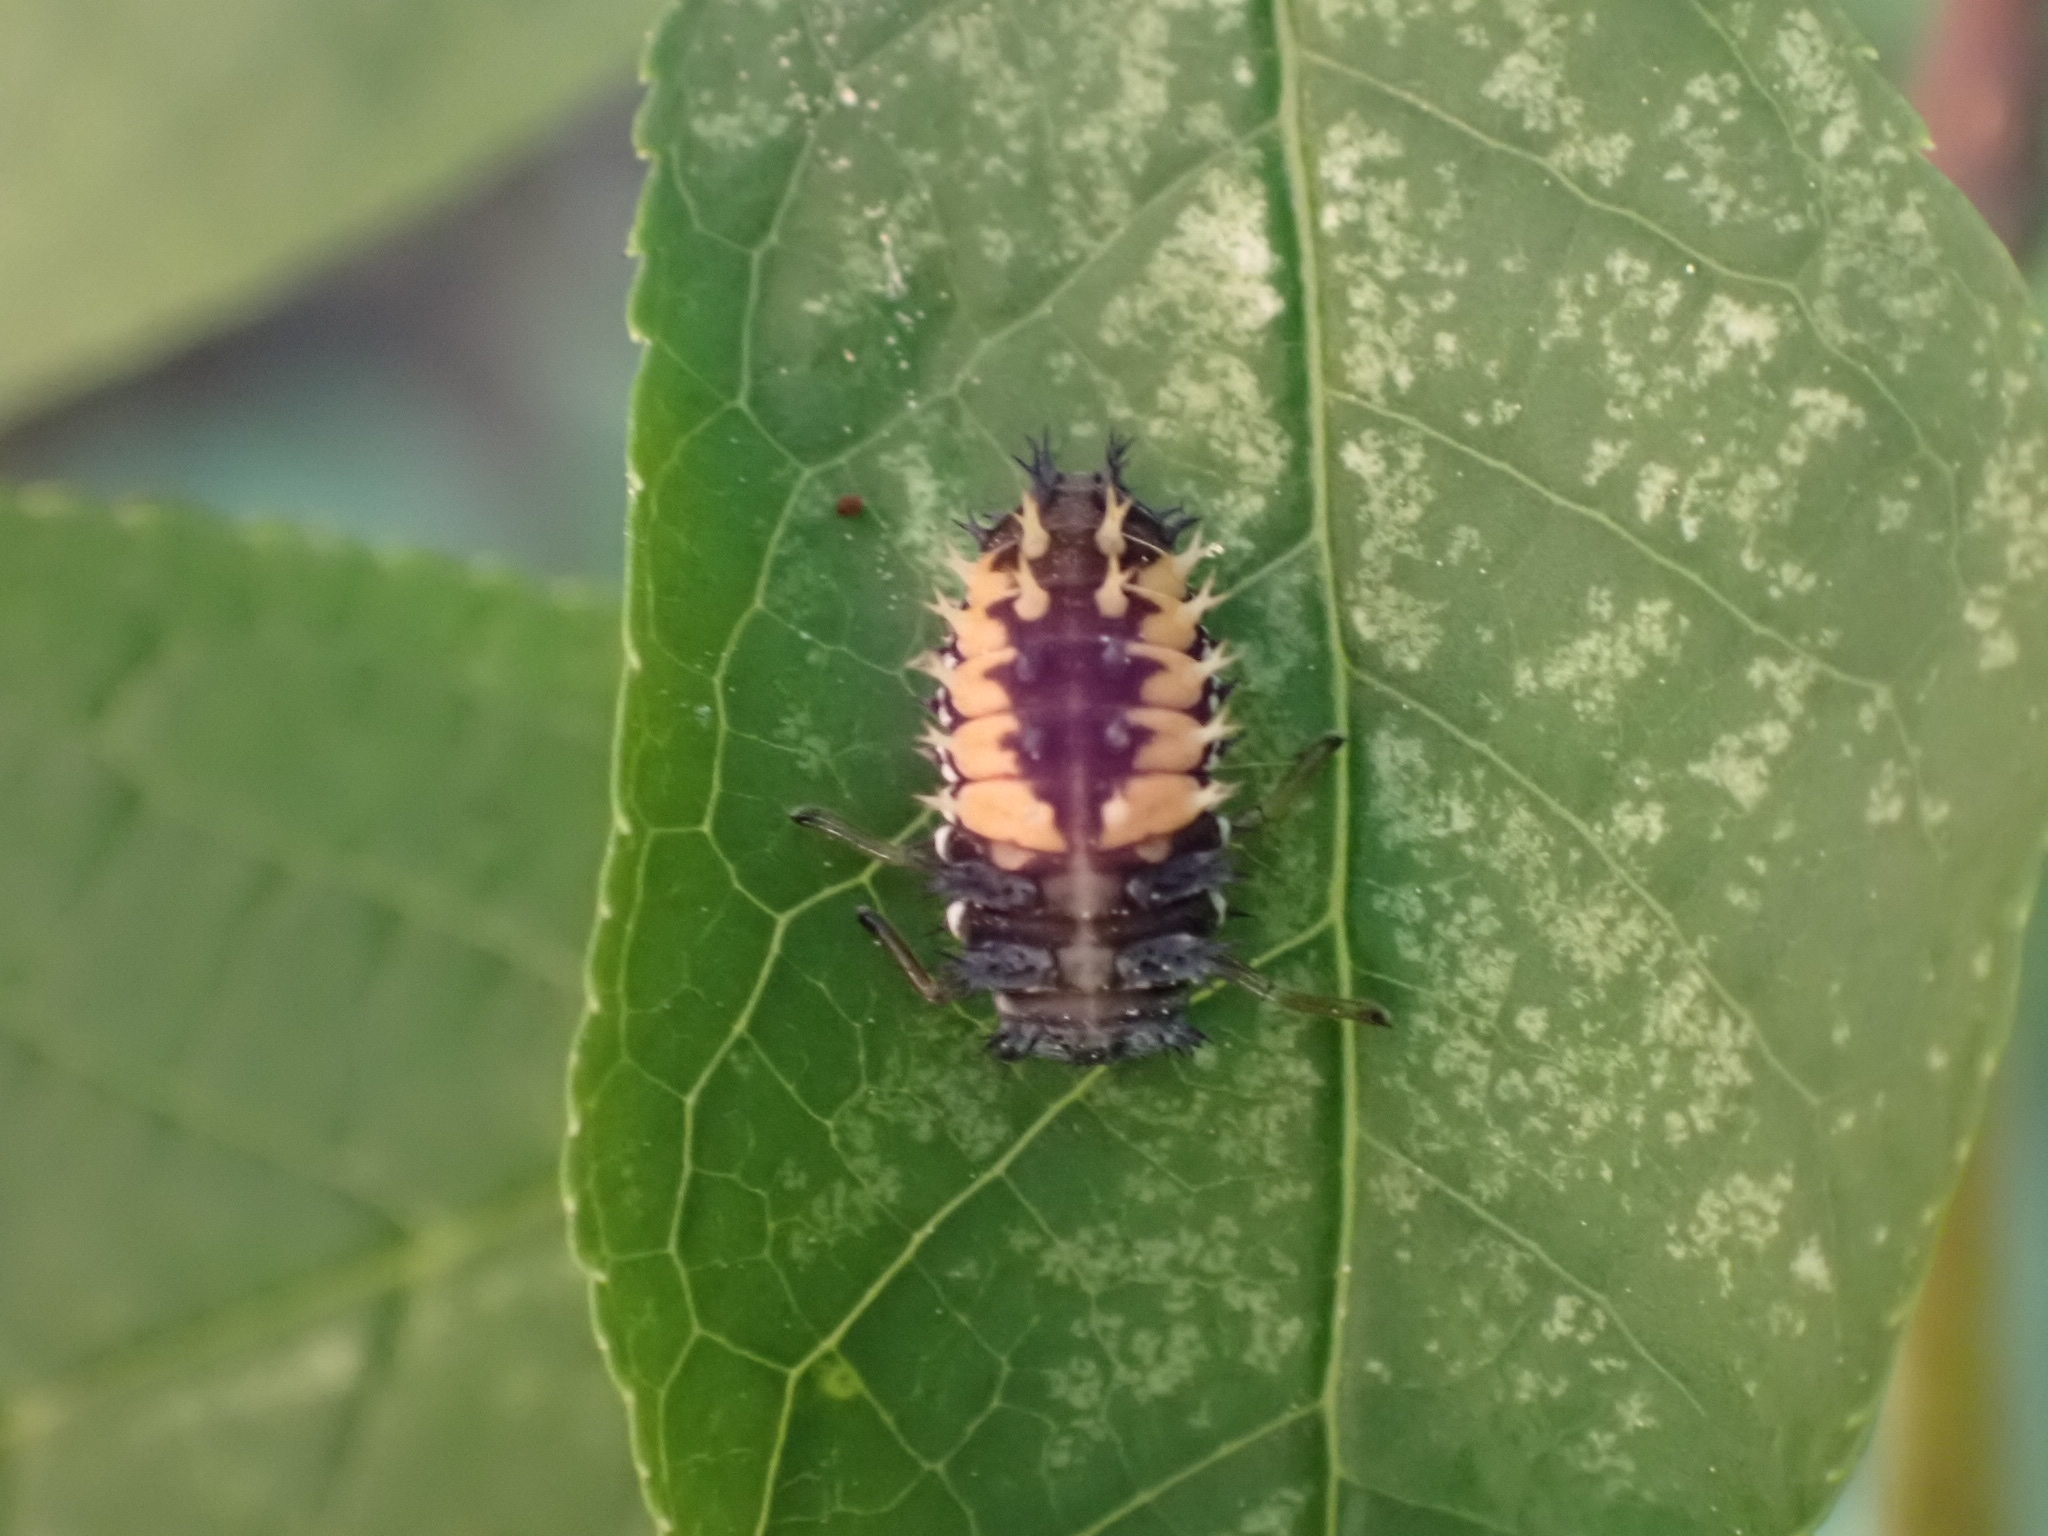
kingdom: Animalia
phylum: Arthropoda
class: Insecta
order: Coleoptera
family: Coccinellidae
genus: Harmonia
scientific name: Harmonia axyridis
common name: Harlequin ladybird
